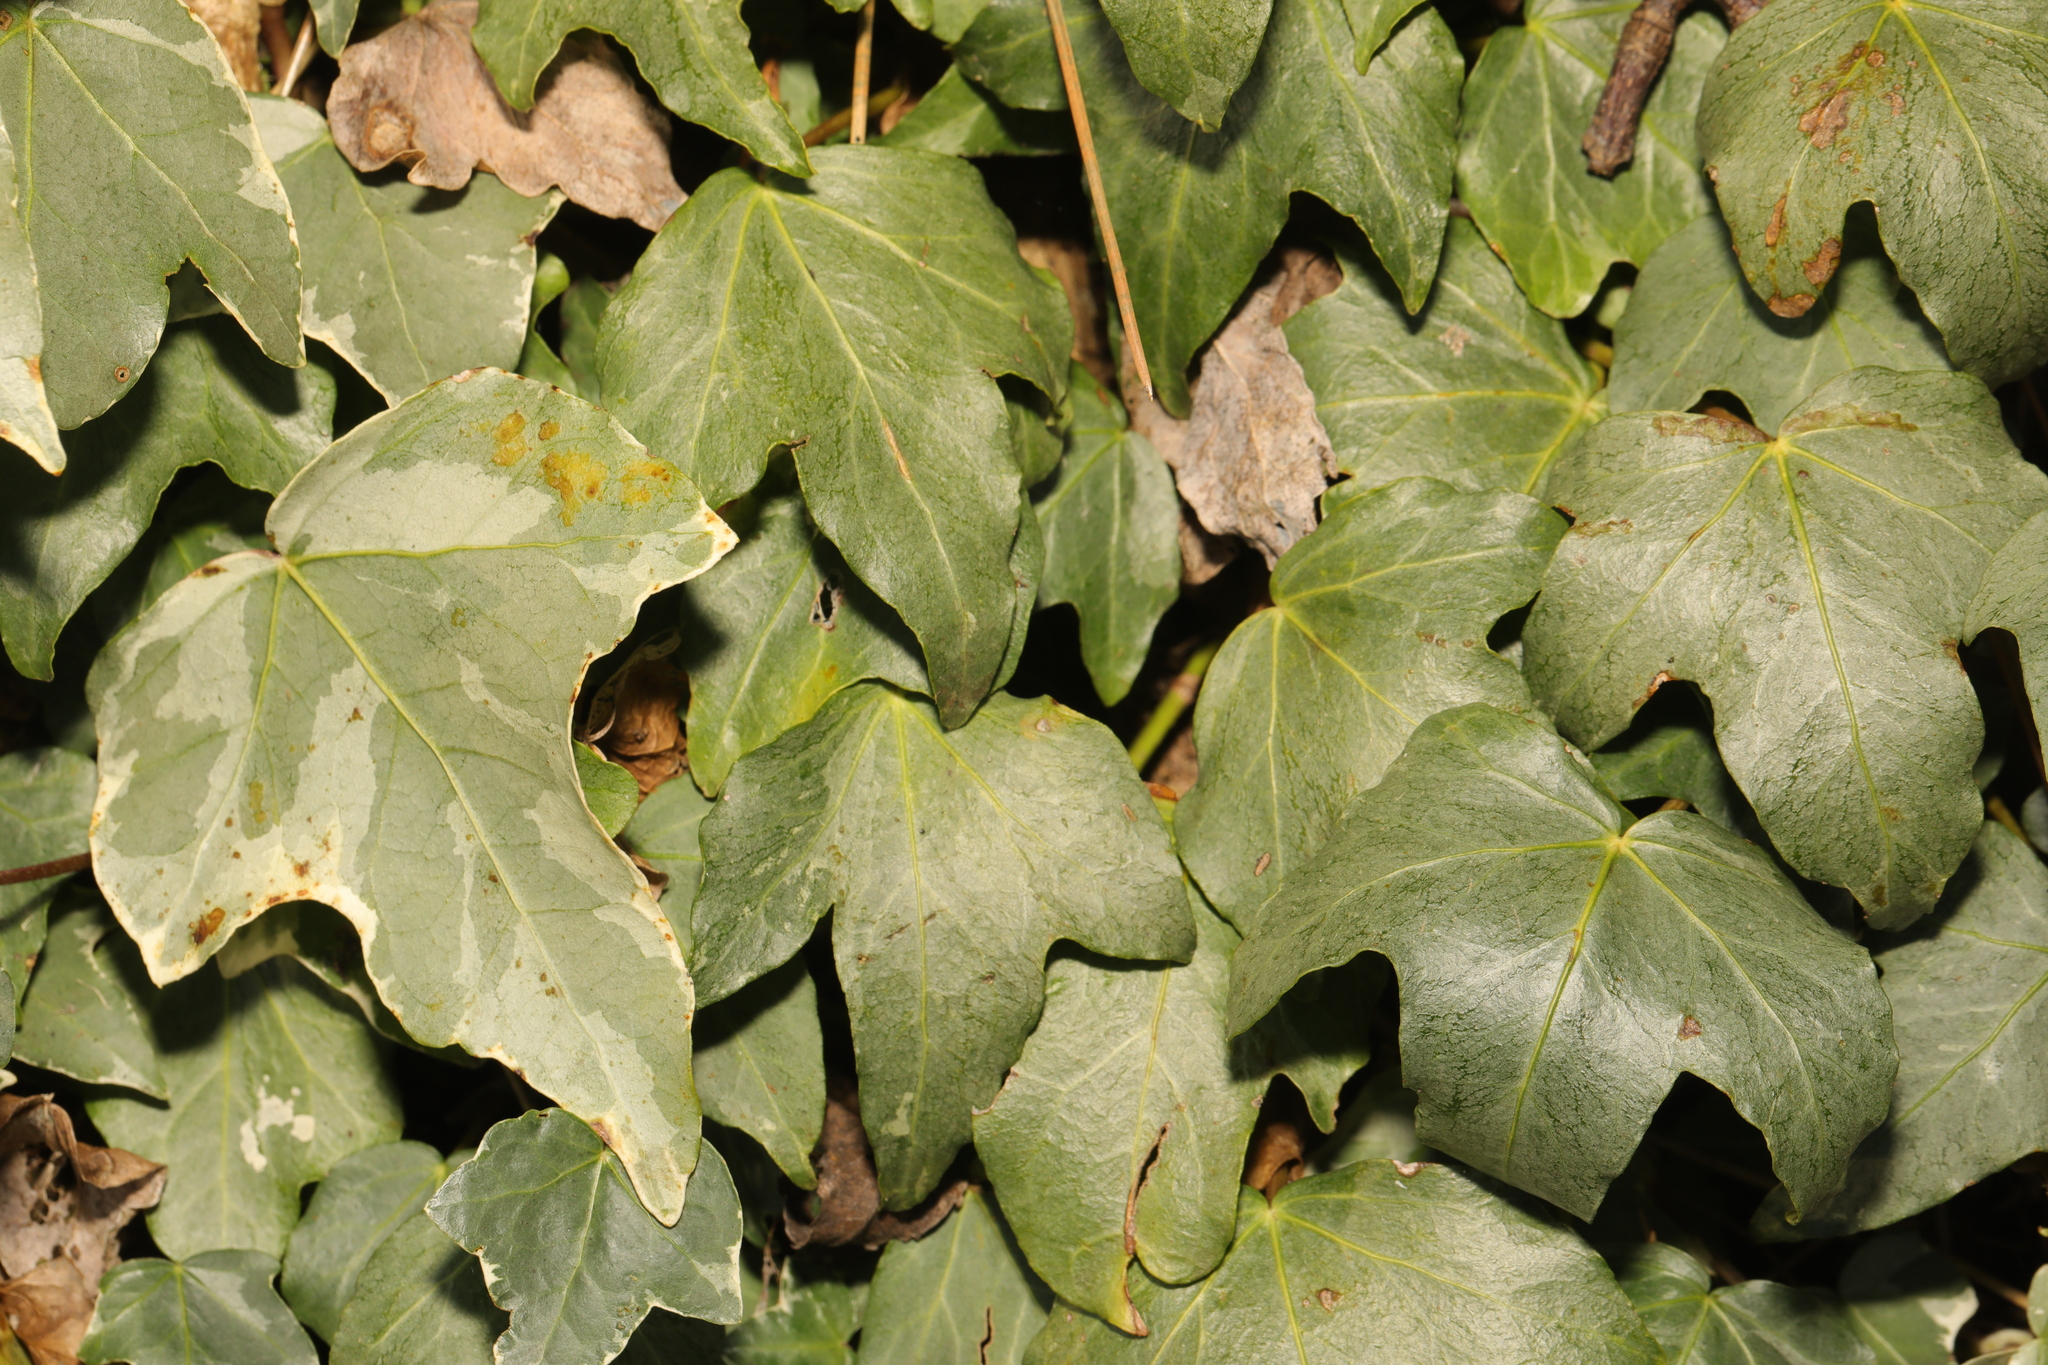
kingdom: Plantae
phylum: Tracheophyta
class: Magnoliopsida
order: Apiales
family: Araliaceae
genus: Hedera
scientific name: Hedera helix
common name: Ivy
